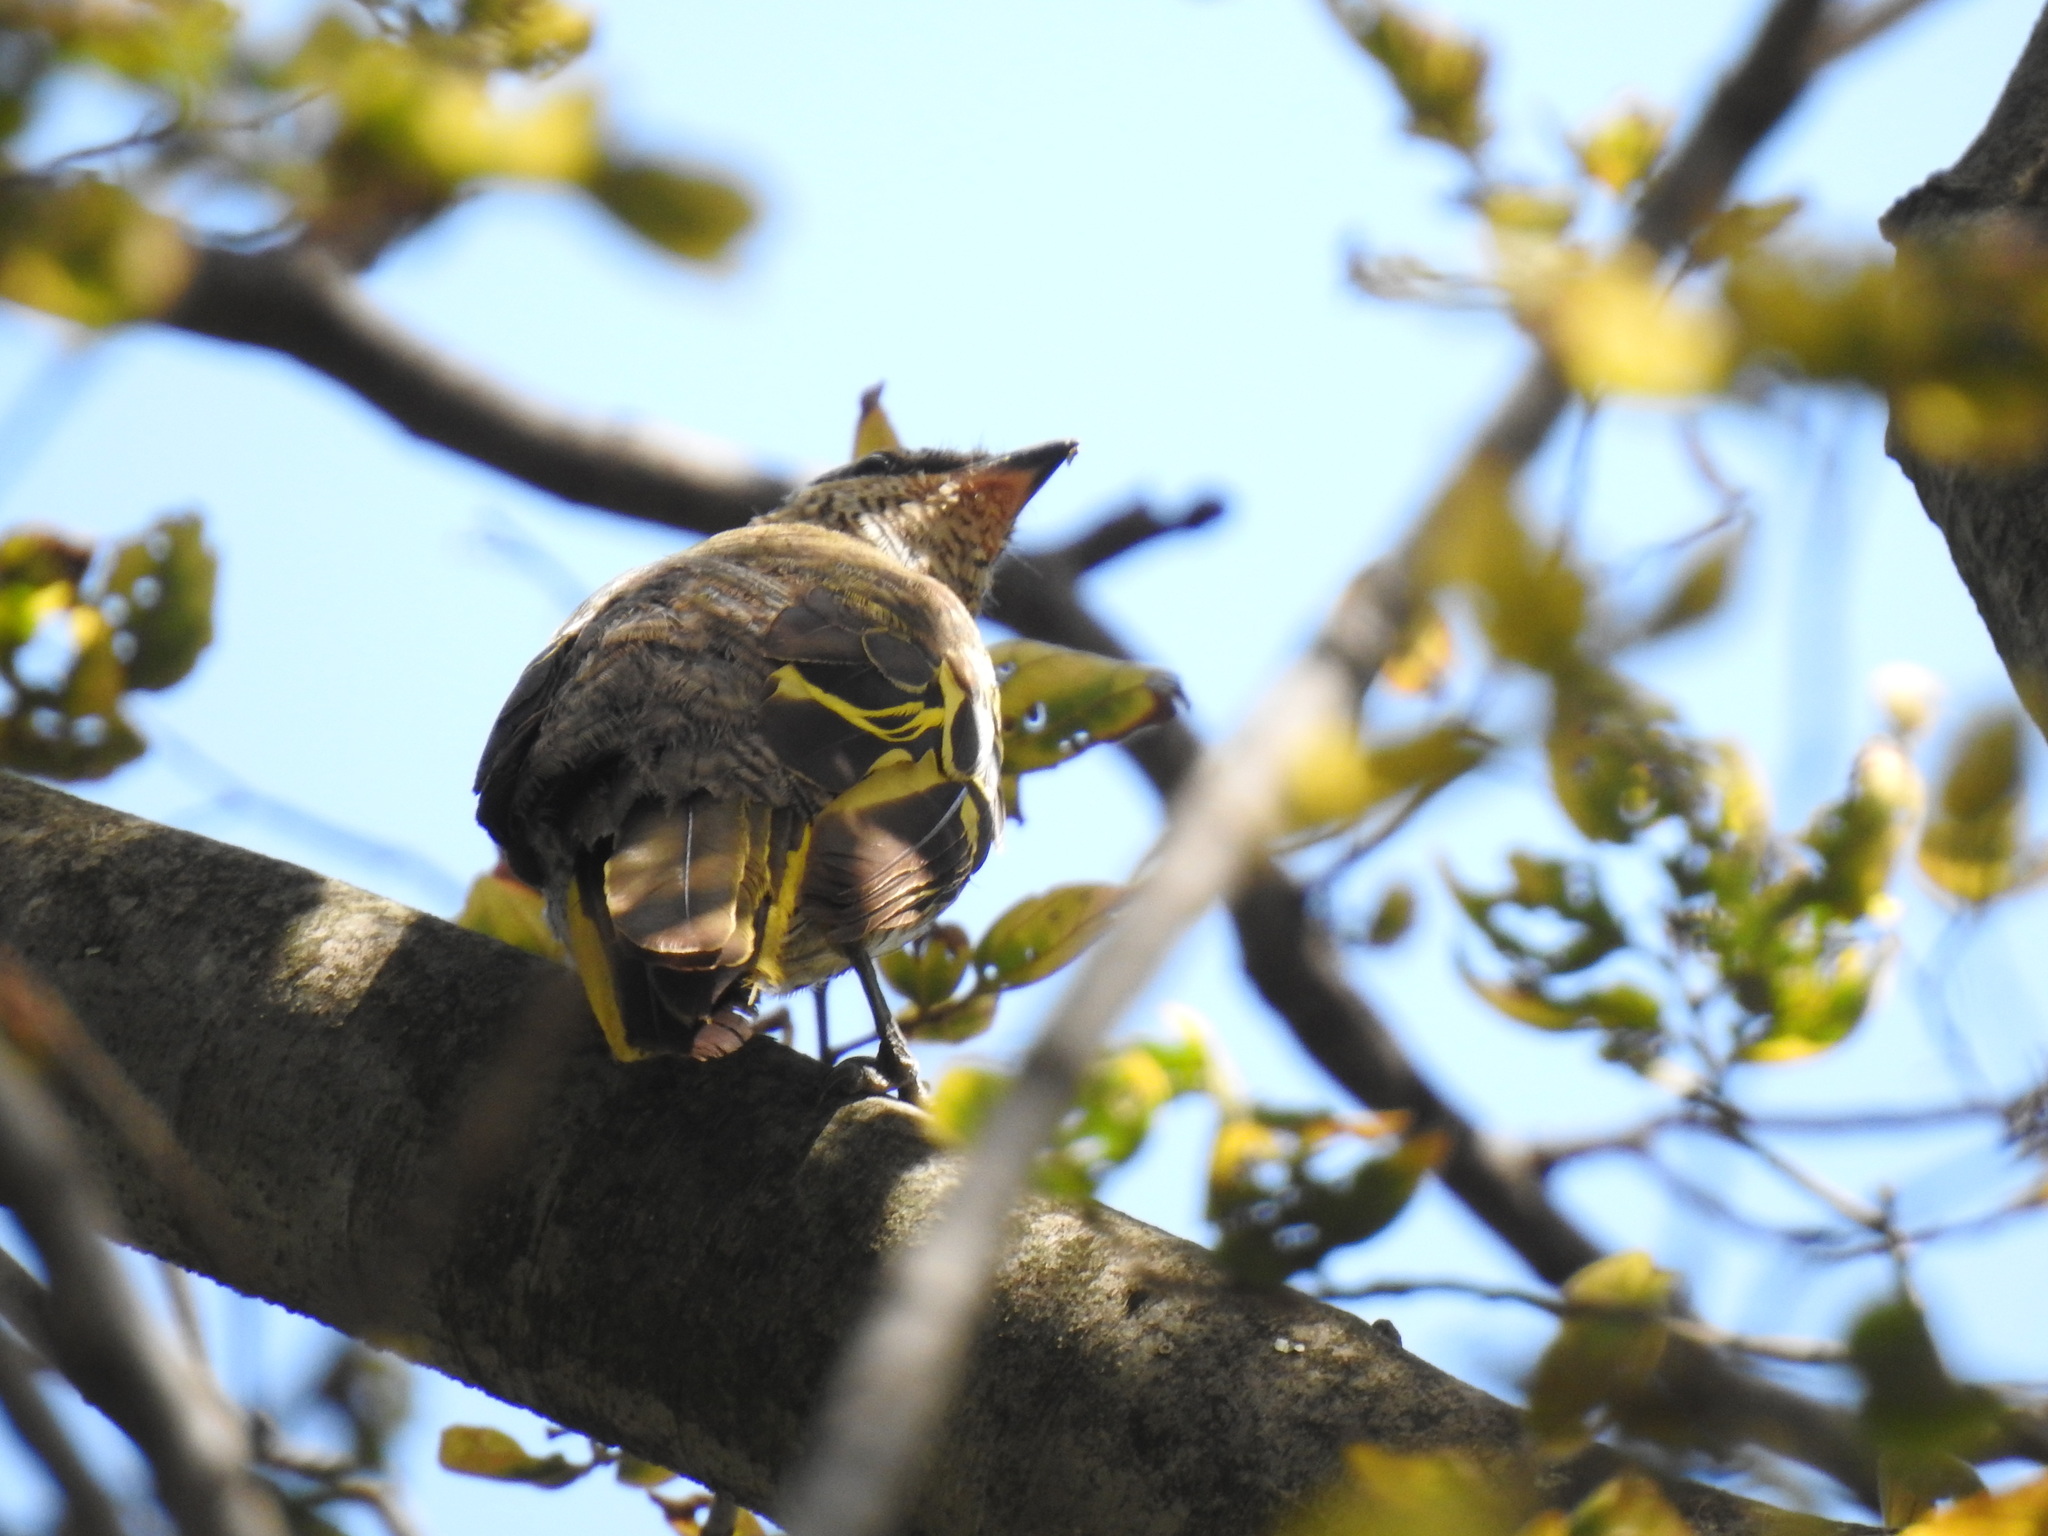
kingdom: Animalia
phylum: Chordata
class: Aves
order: Passeriformes
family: Campephagidae
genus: Campephaga
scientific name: Campephaga flava
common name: Black cuckooshrike
